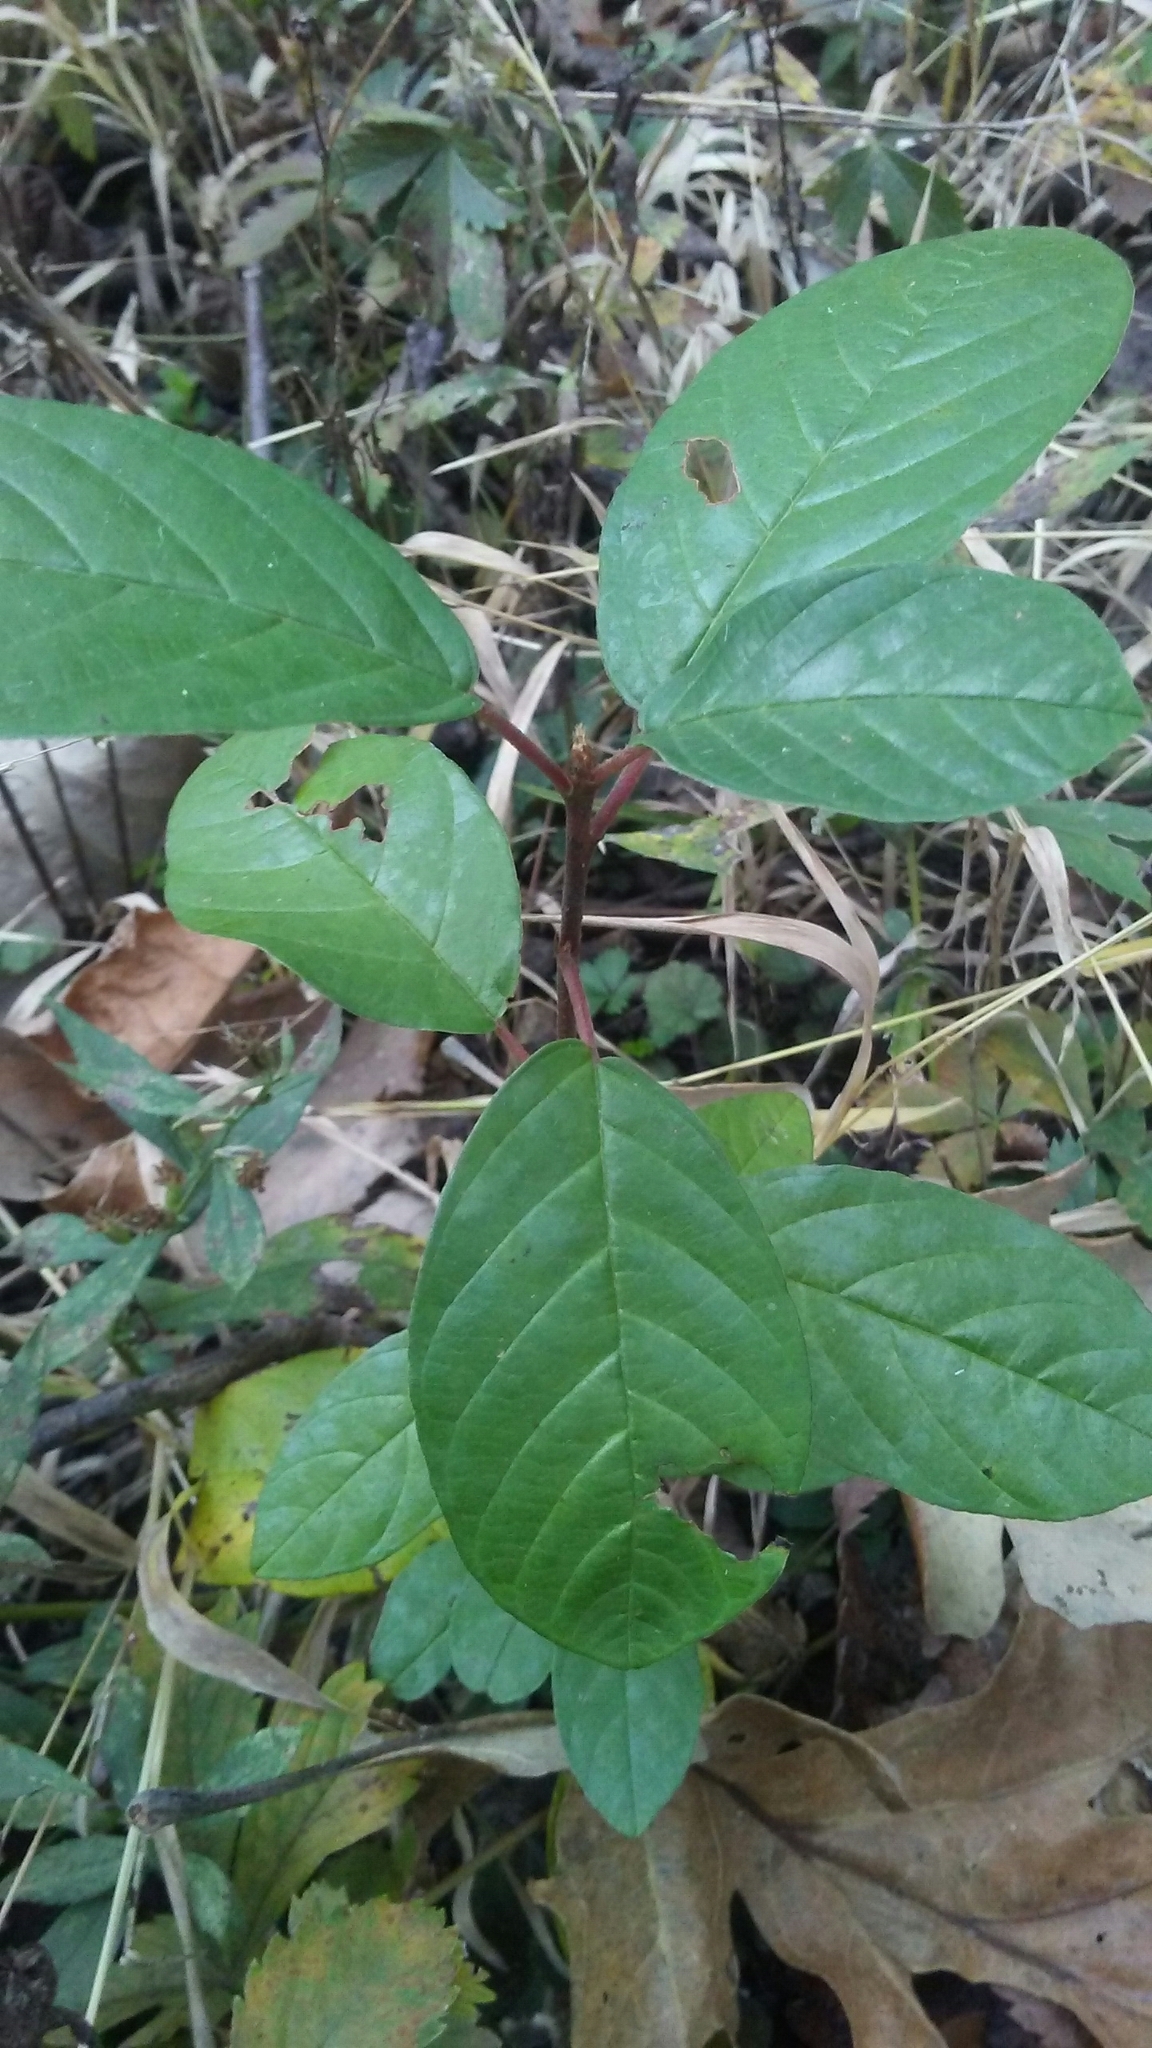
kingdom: Plantae
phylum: Tracheophyta
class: Magnoliopsida
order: Rosales
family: Rhamnaceae
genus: Frangula
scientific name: Frangula alnus
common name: Alder buckthorn
